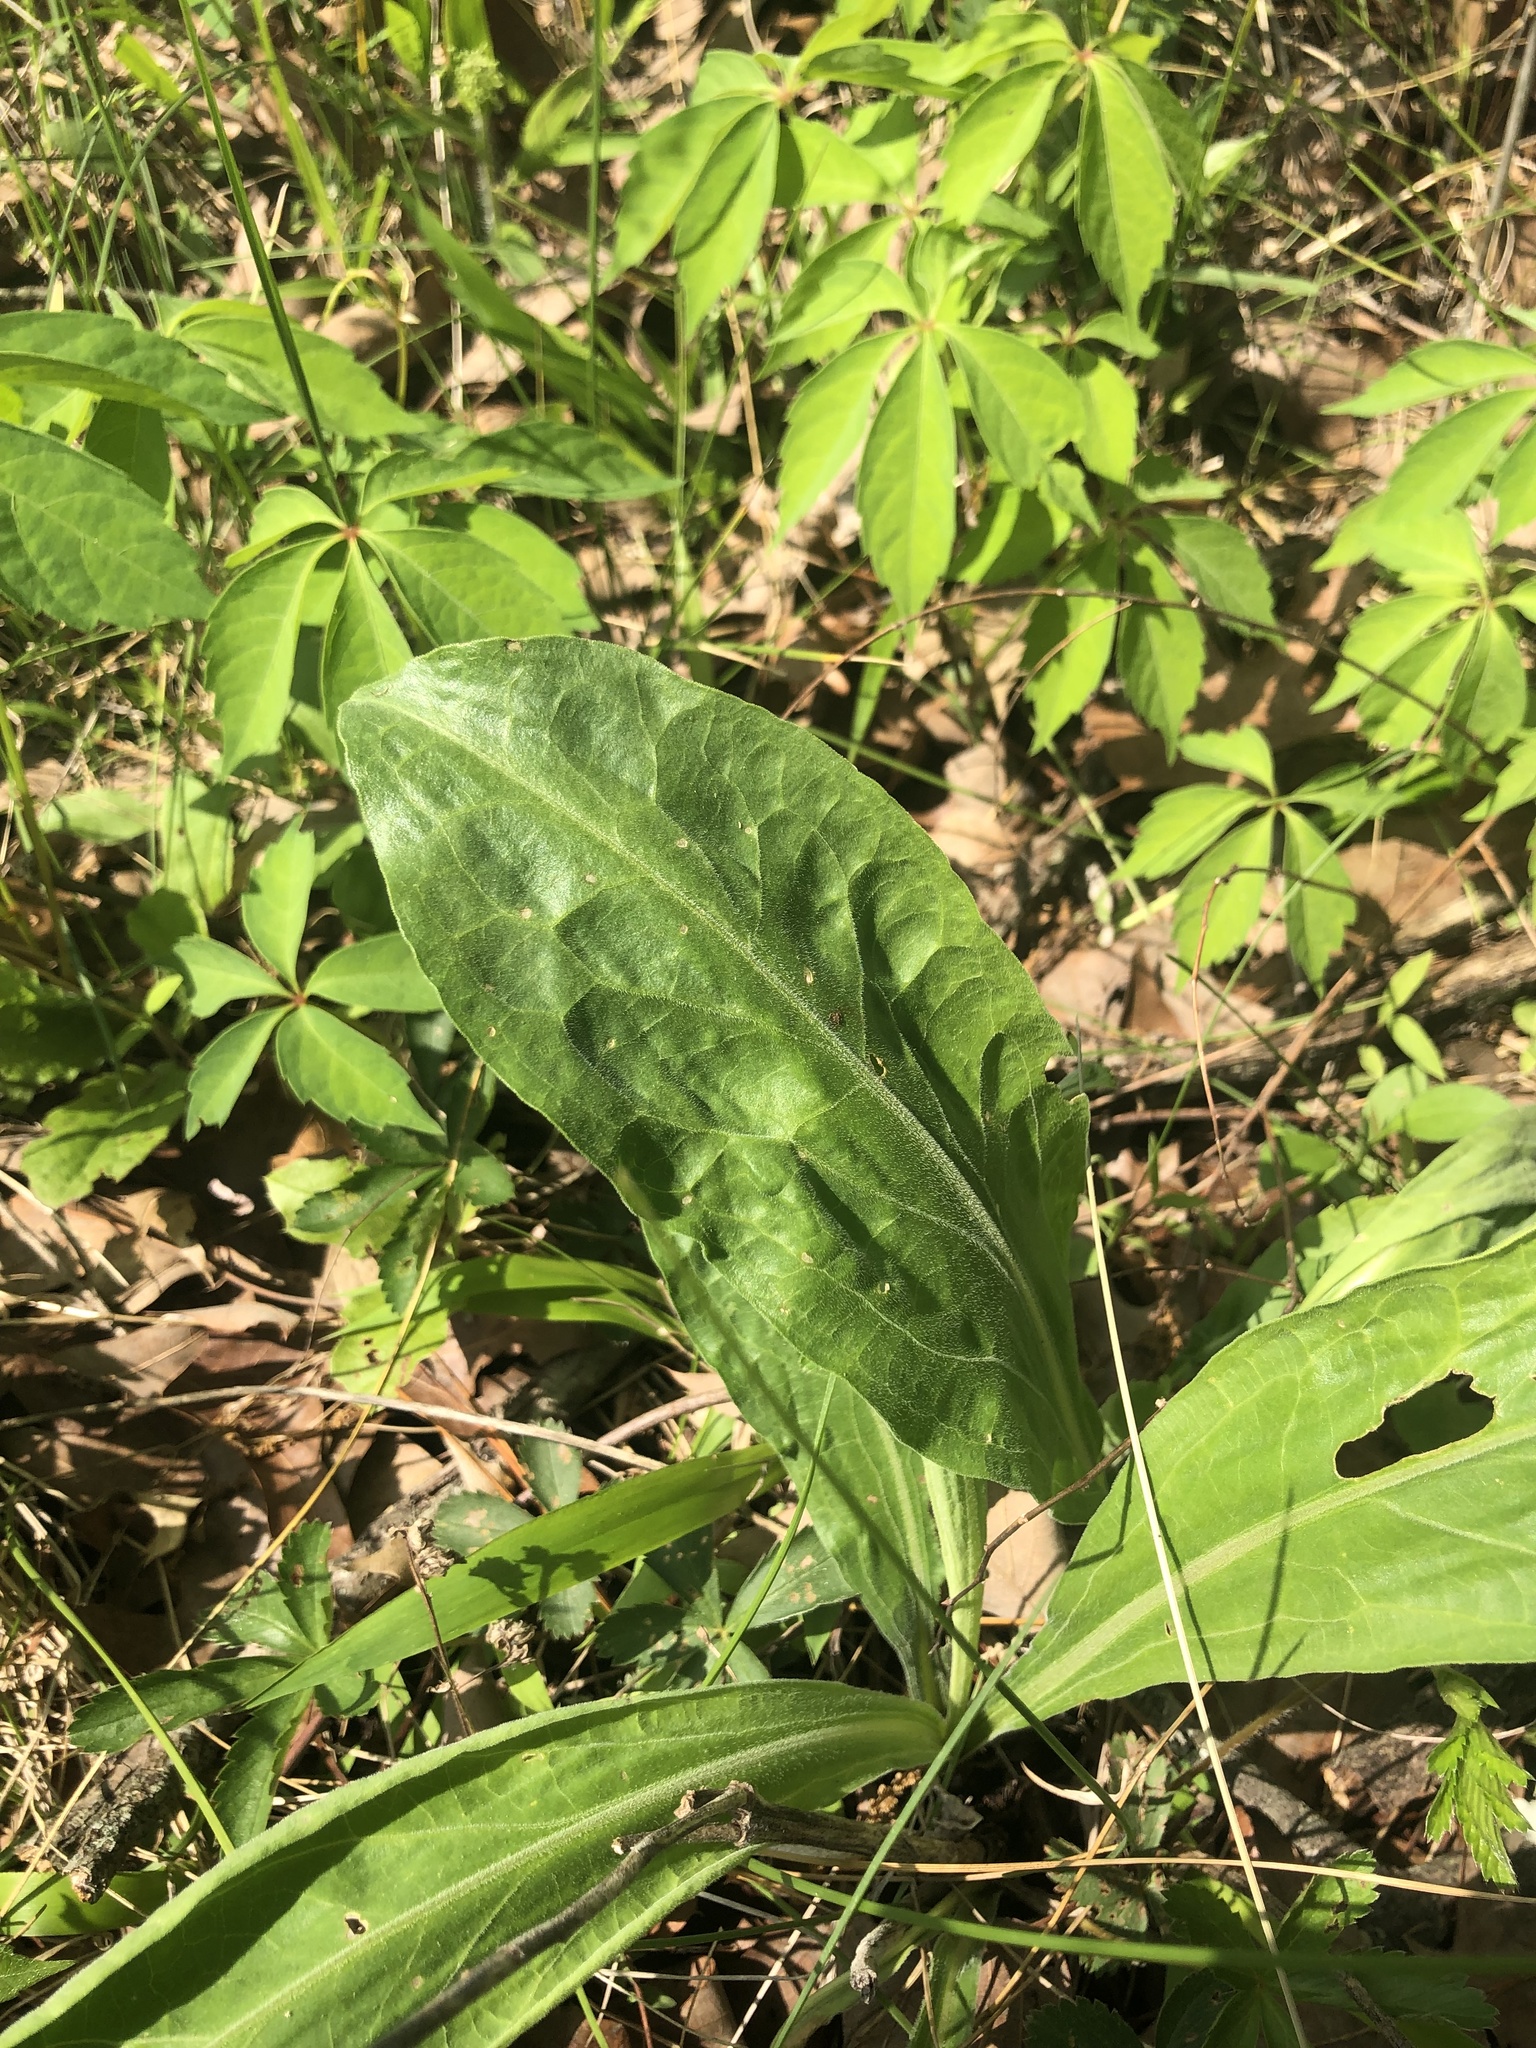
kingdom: Plantae
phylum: Tracheophyta
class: Magnoliopsida
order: Asterales
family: Asteraceae
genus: Liatris
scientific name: Liatris squarrulosa
